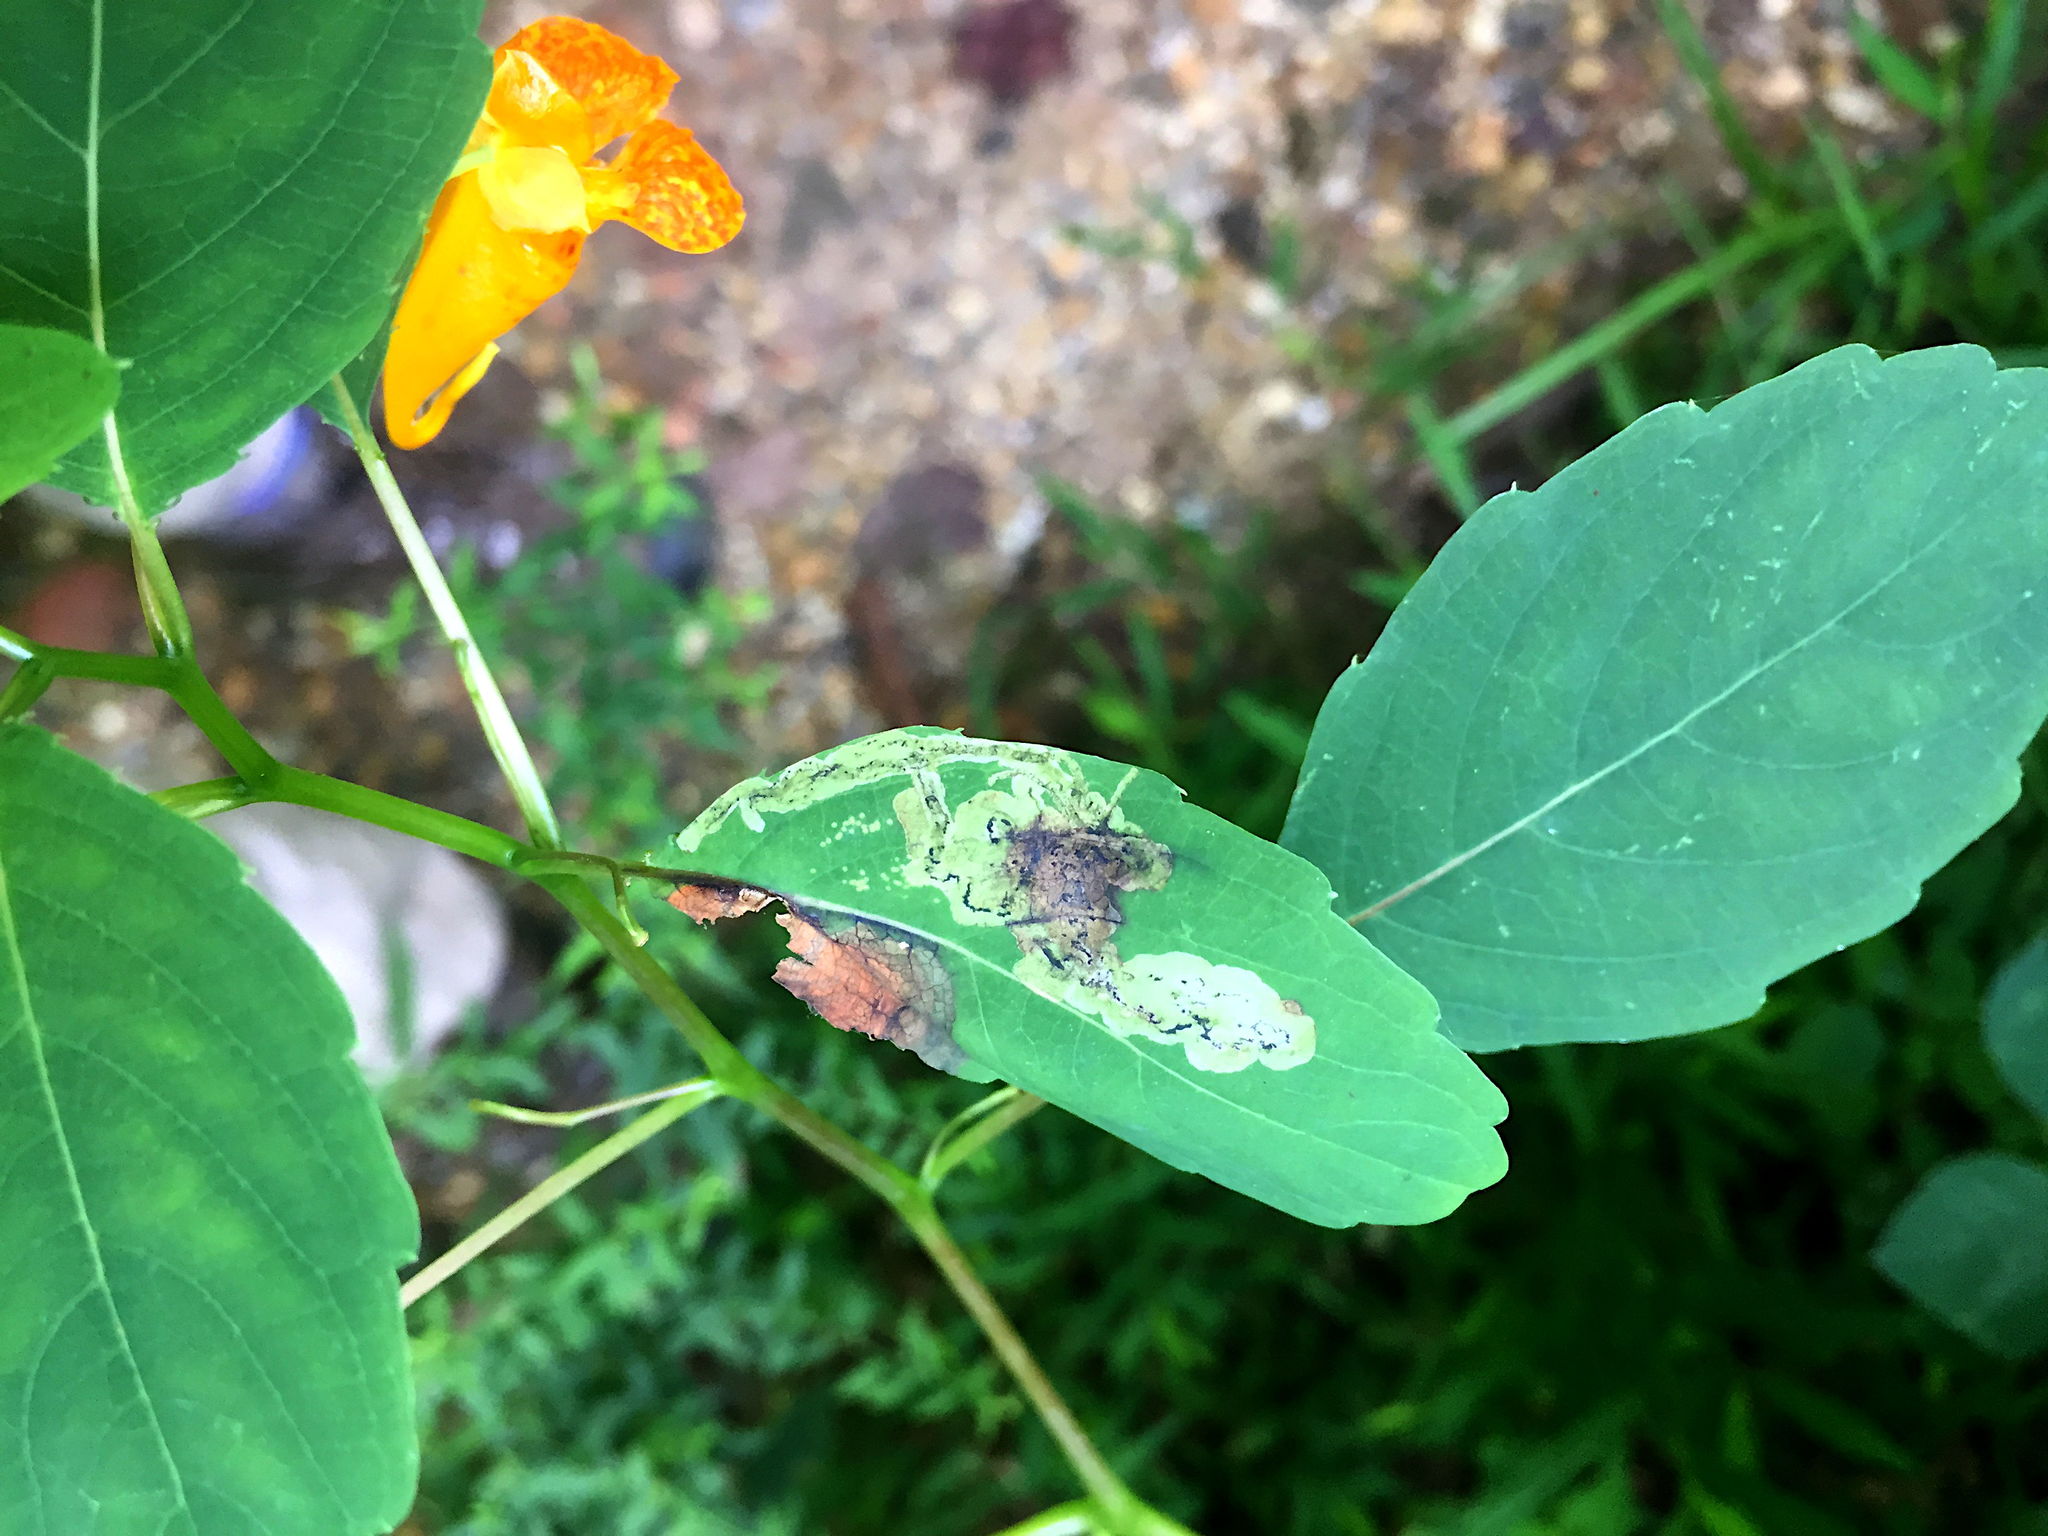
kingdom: Animalia
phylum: Arthropoda
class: Insecta
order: Diptera
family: Agromyzidae
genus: Phytoliriomyza
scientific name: Phytoliriomyza melampyga
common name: Jewelweed leaf-miner fly
